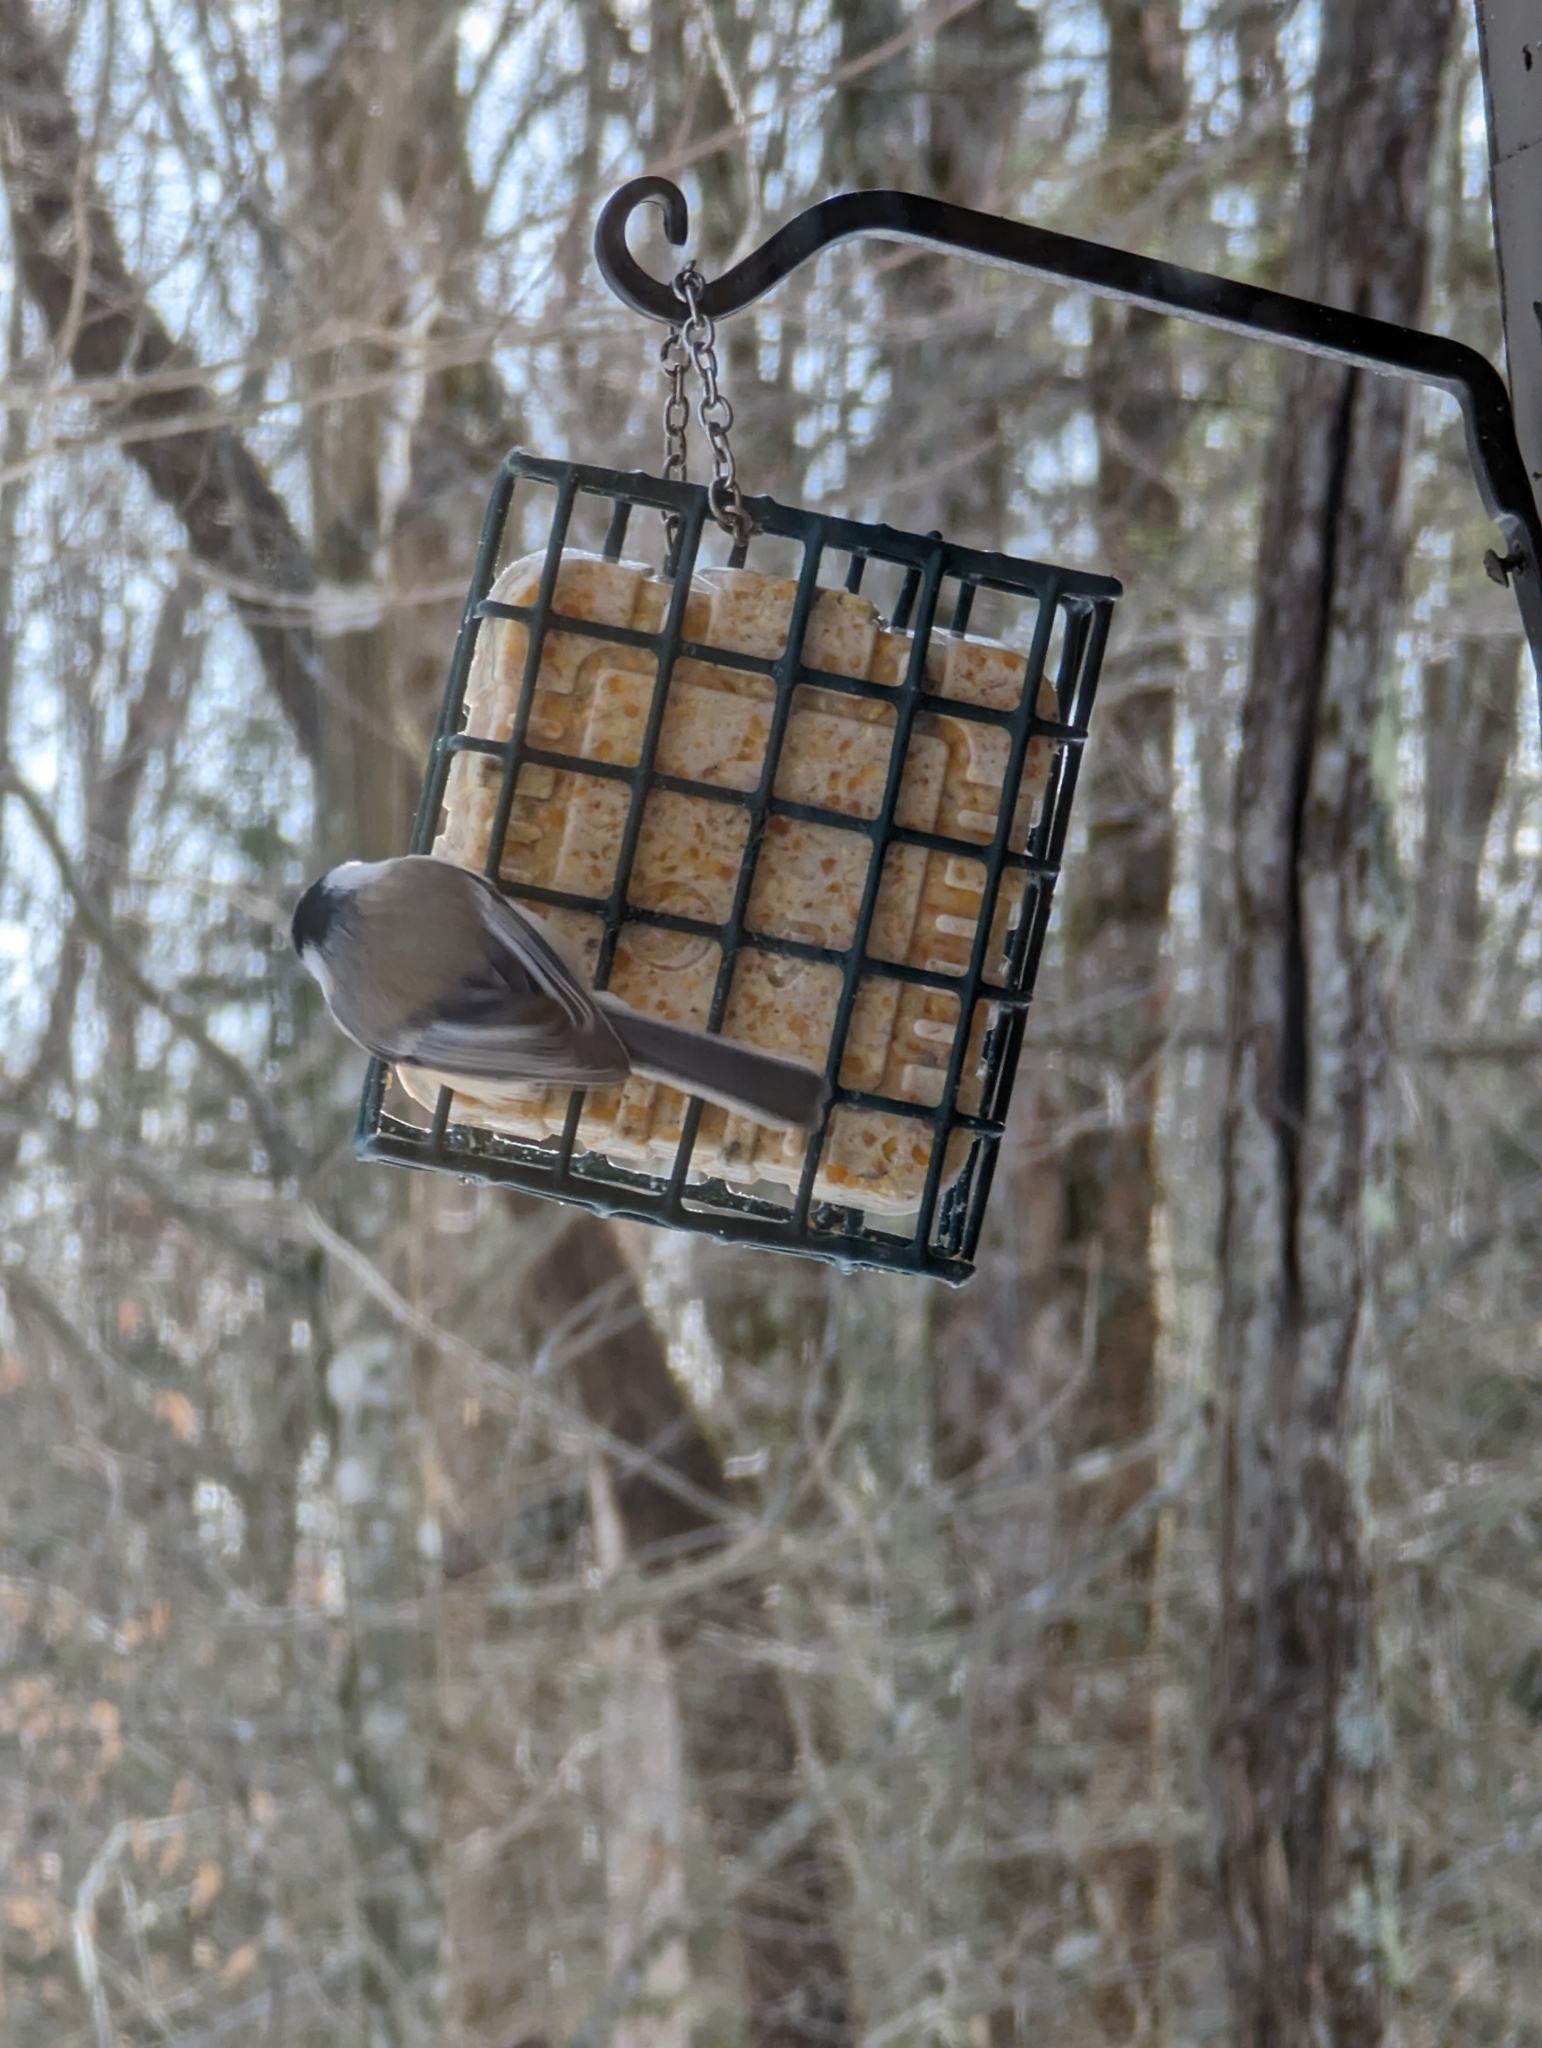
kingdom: Animalia
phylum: Chordata
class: Aves
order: Passeriformes
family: Paridae
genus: Poecile
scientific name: Poecile atricapillus
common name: Black-capped chickadee
